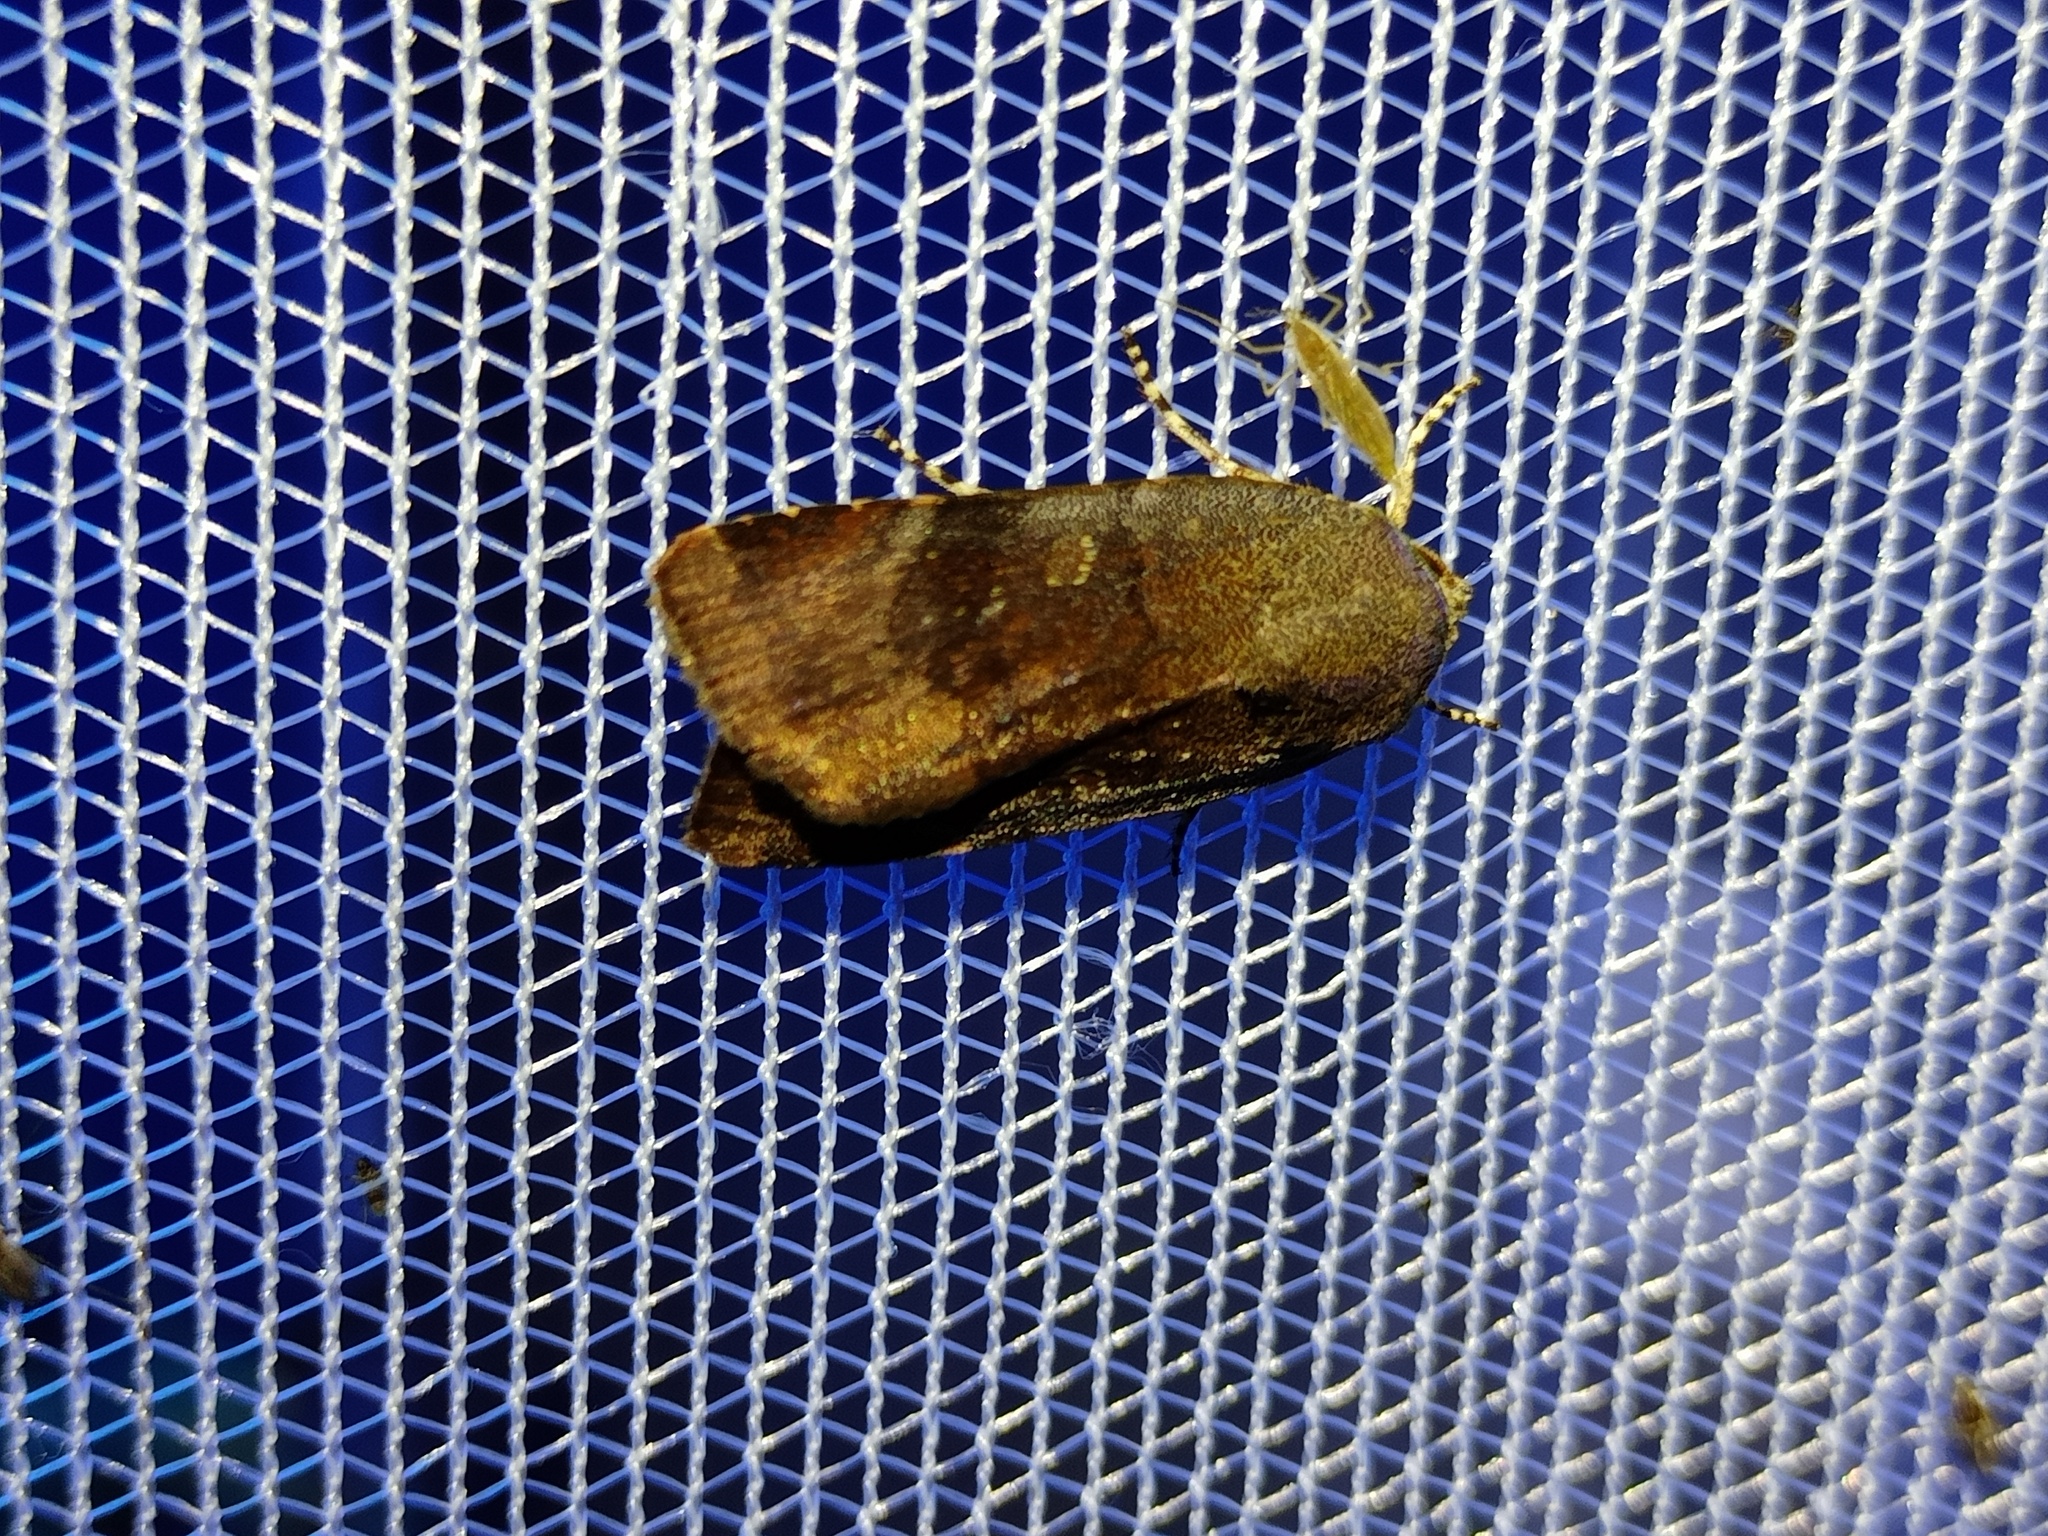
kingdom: Animalia
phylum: Arthropoda
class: Insecta
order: Lepidoptera
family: Noctuidae
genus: Noctua
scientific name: Noctua janthina
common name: Langmaid's yellow underwing
